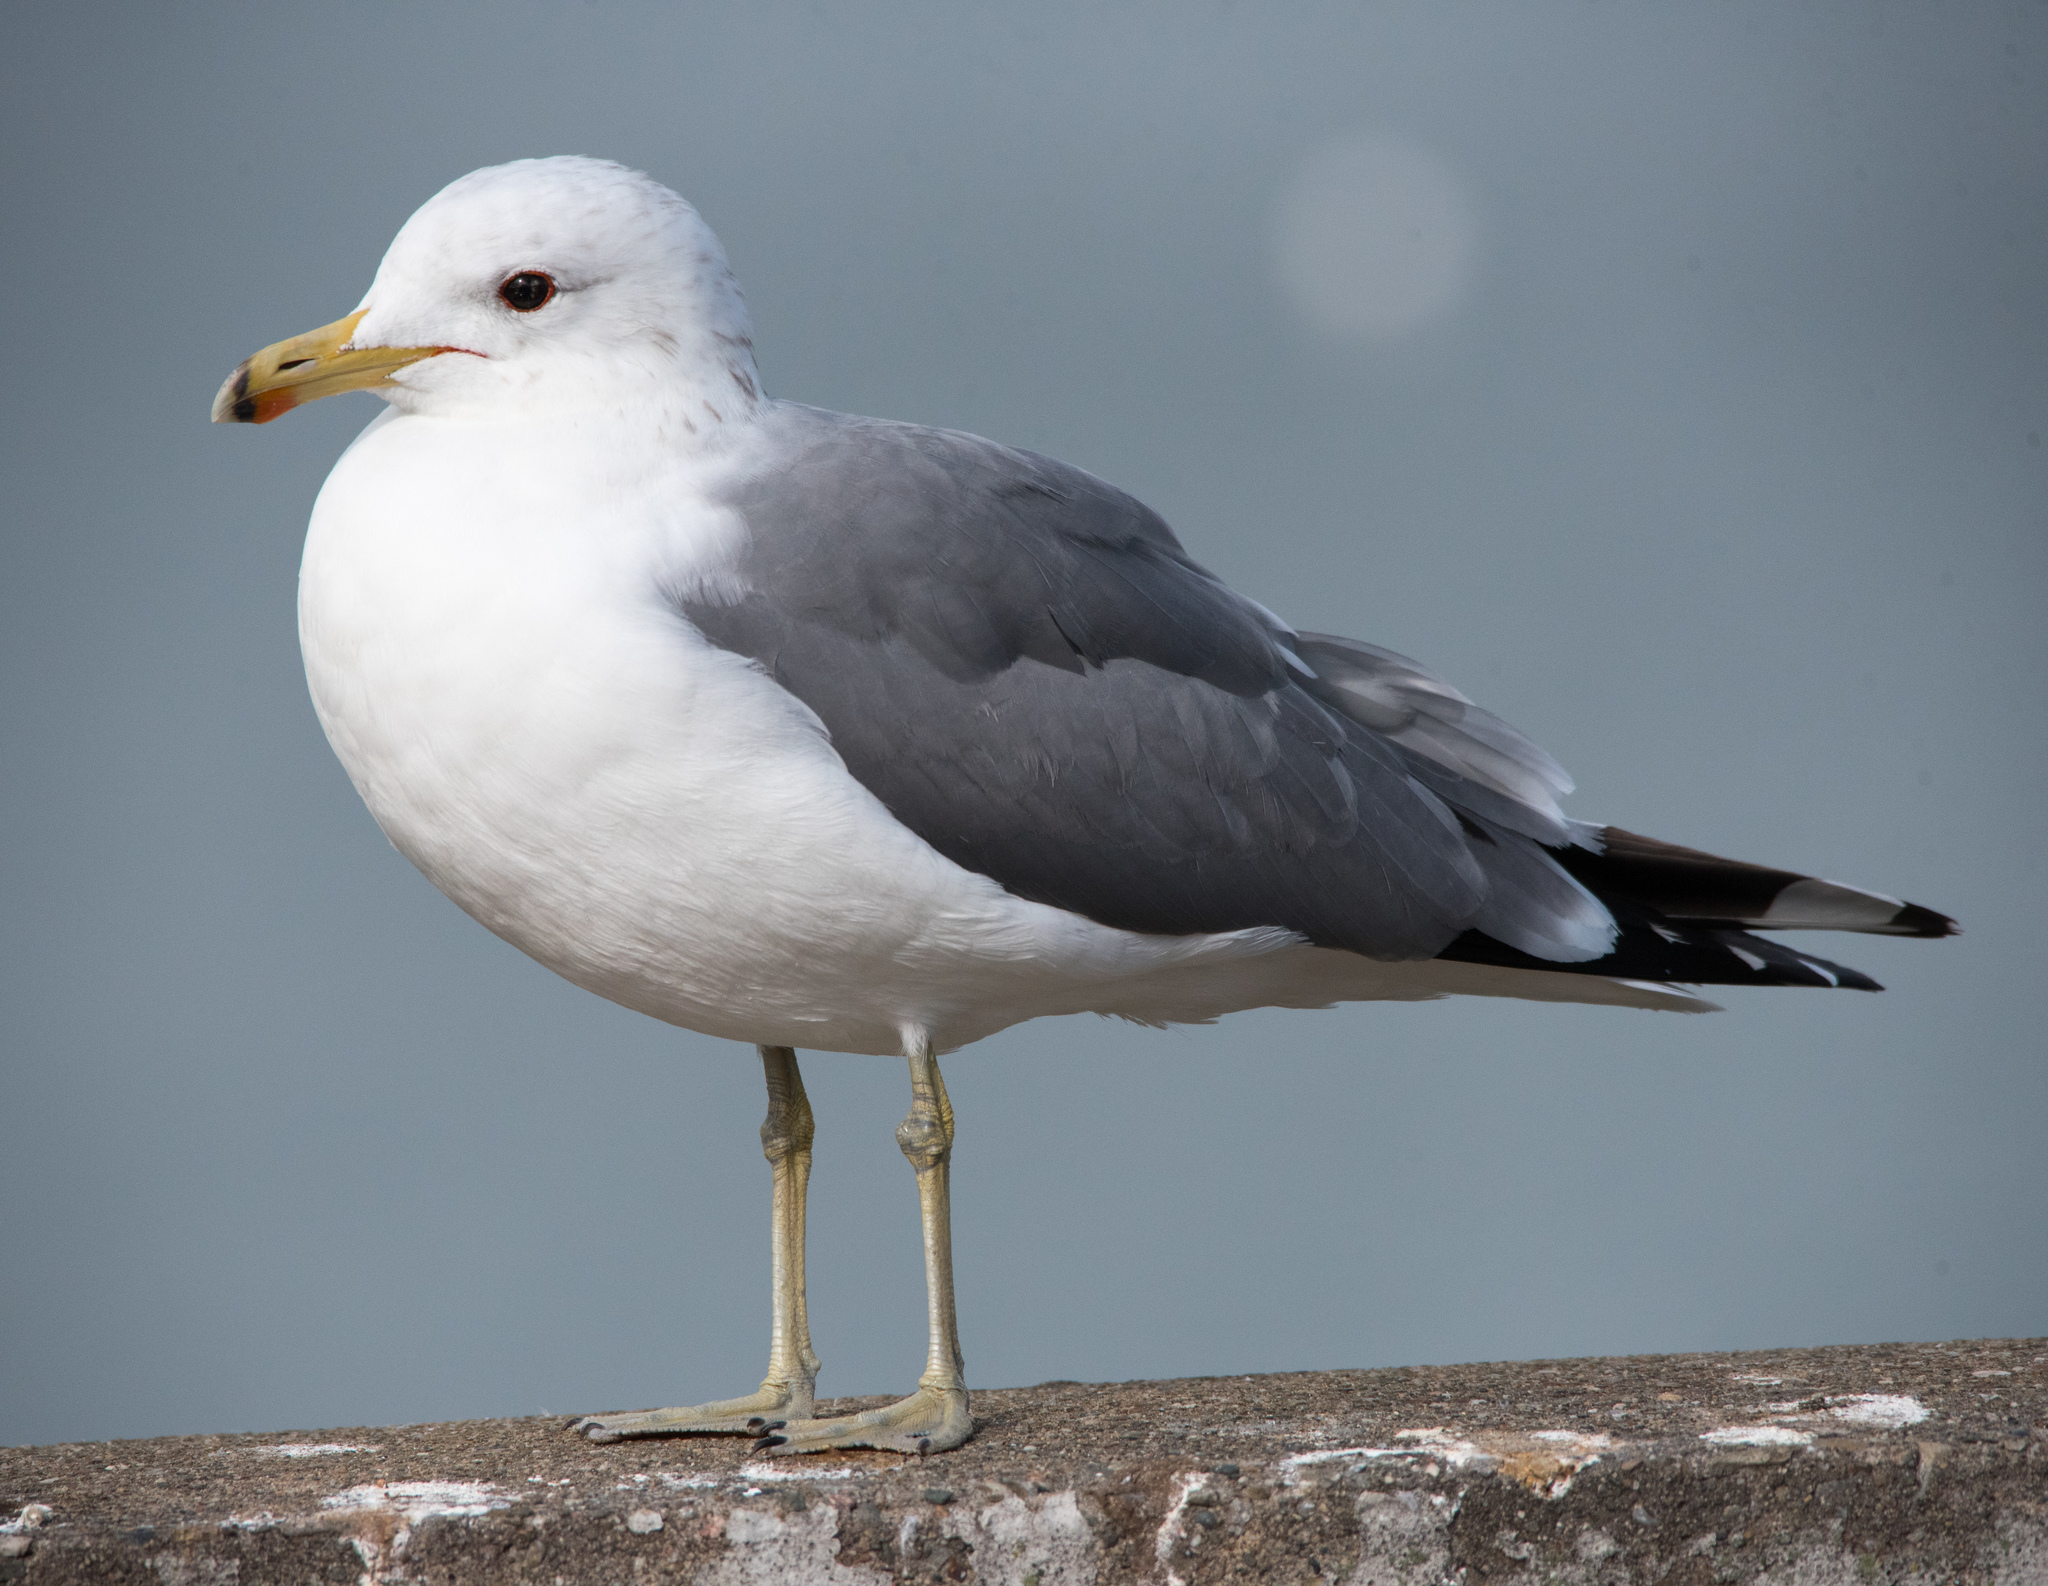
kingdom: Animalia
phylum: Chordata
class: Aves
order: Charadriiformes
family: Laridae
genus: Larus
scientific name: Larus californicus
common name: California gull
